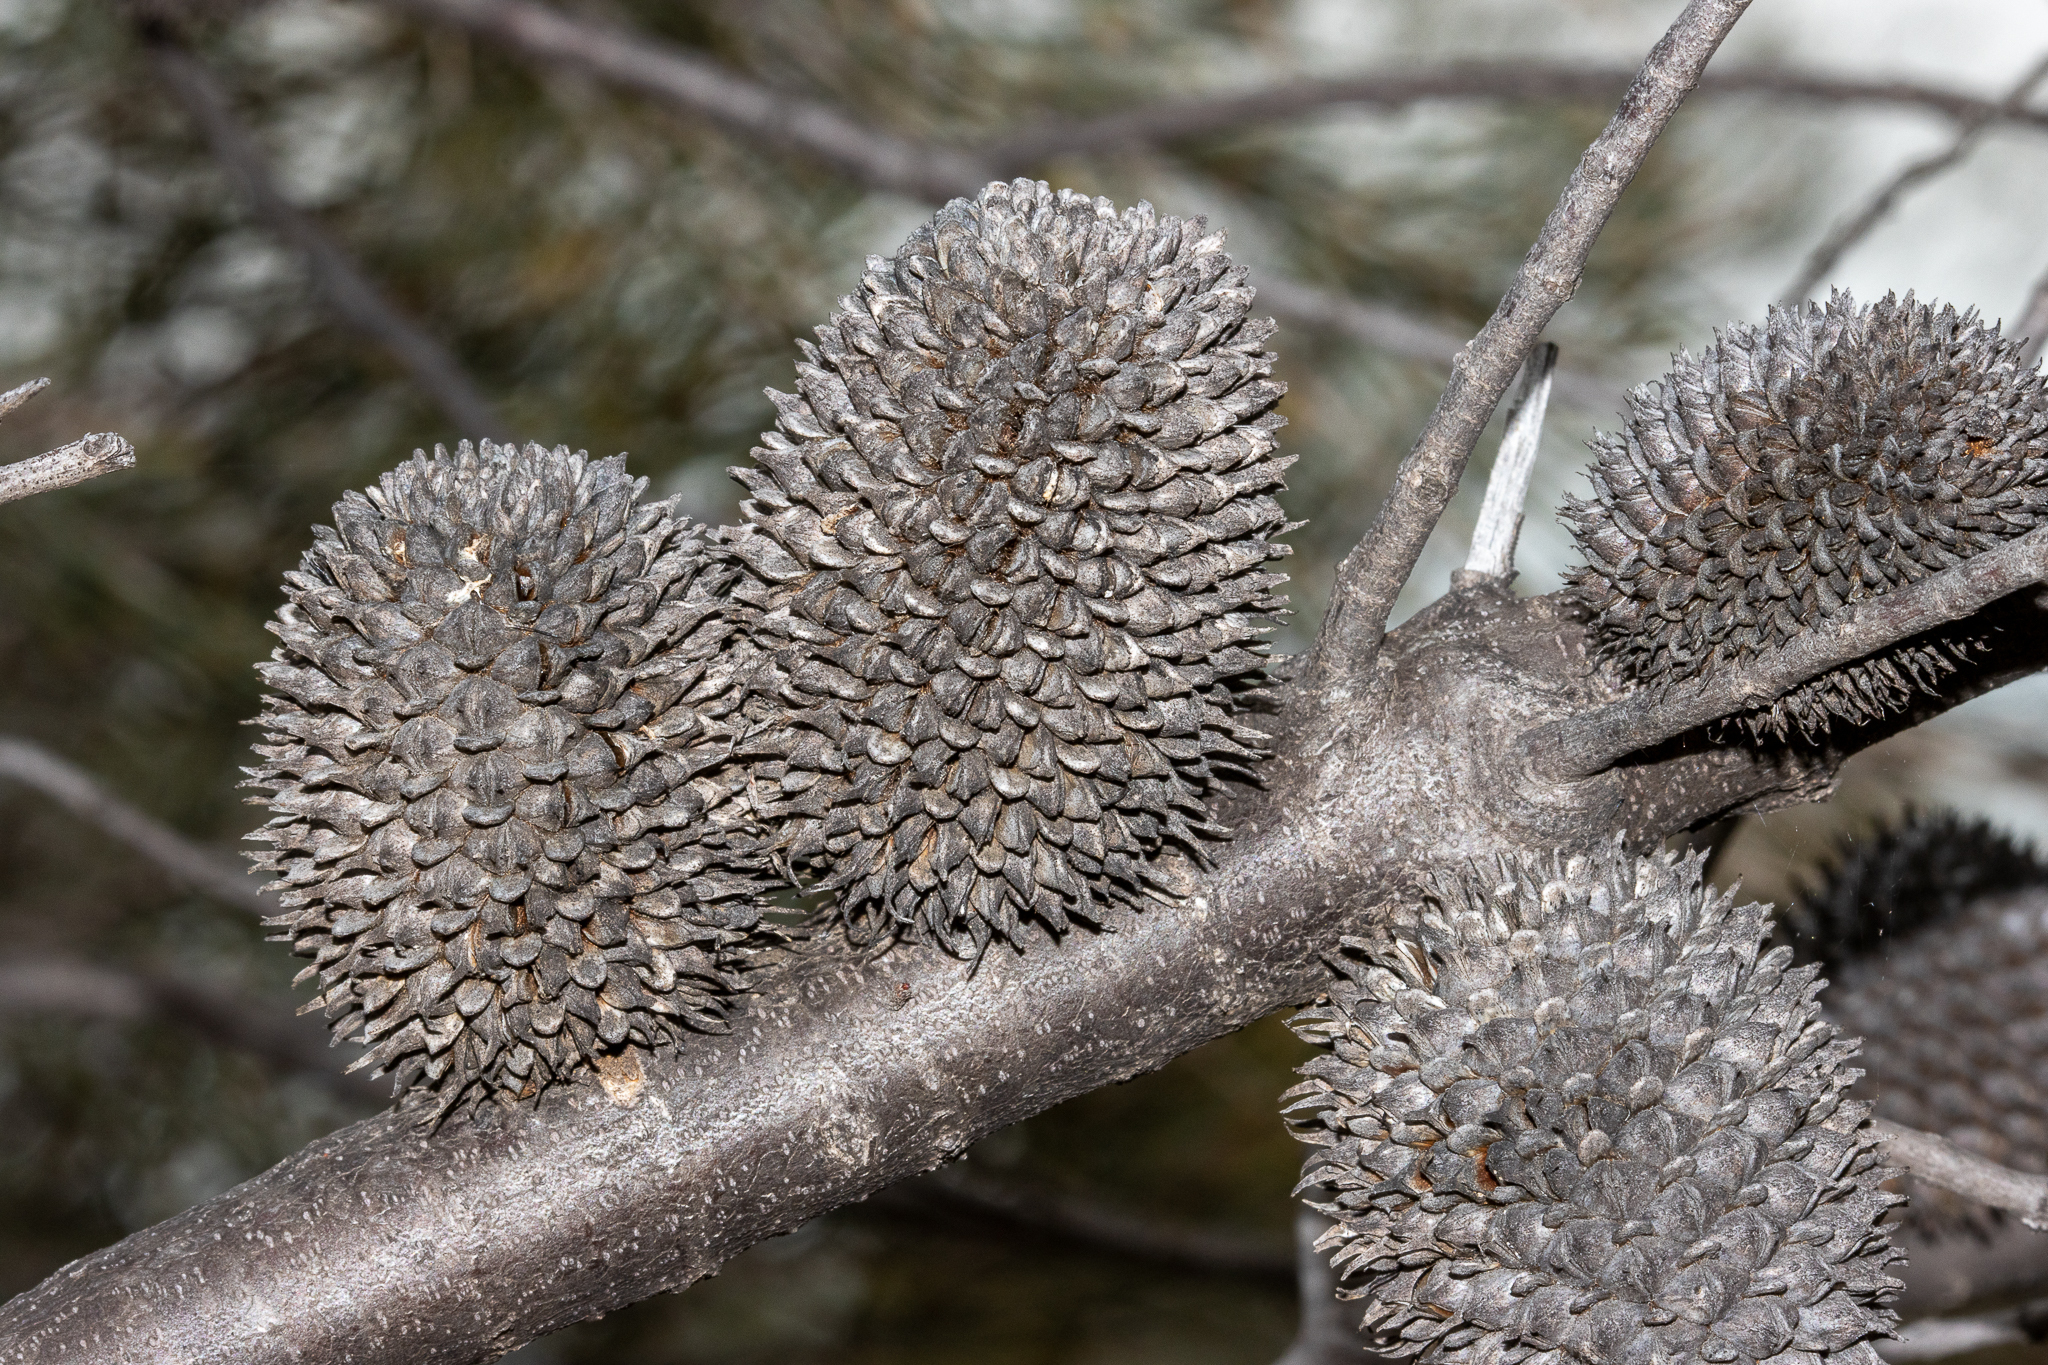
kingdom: Plantae
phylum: Tracheophyta
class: Magnoliopsida
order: Fagales
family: Casuarinaceae
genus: Allocasuarina
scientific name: Allocasuarina acutivalvis
